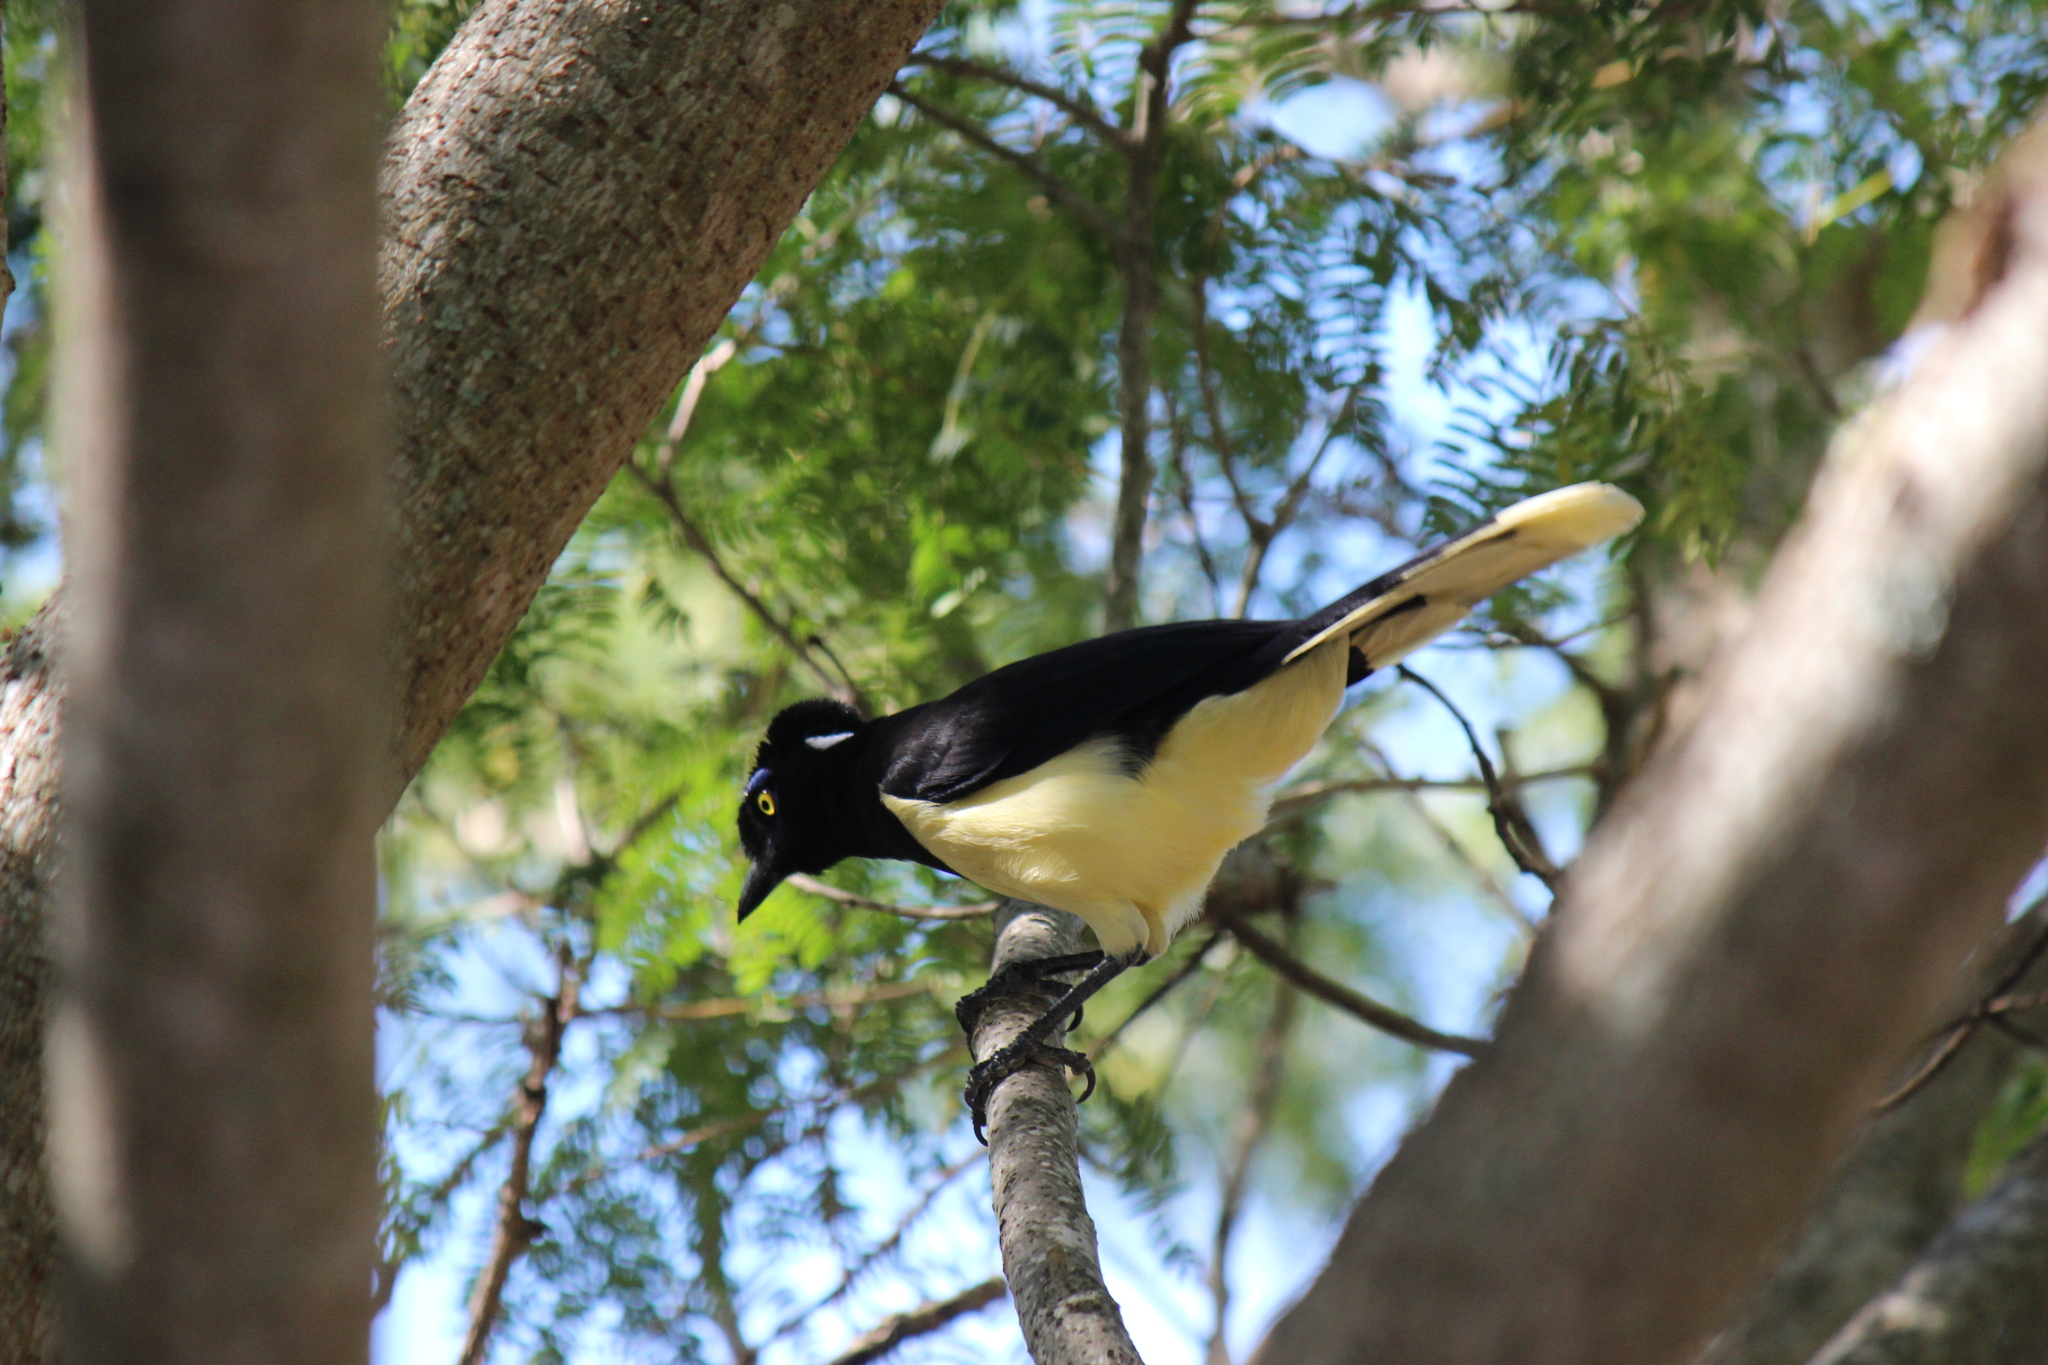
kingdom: Animalia
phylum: Chordata
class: Aves
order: Passeriformes
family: Corvidae
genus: Cyanocorax
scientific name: Cyanocorax chrysops
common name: Plush-crested jay
